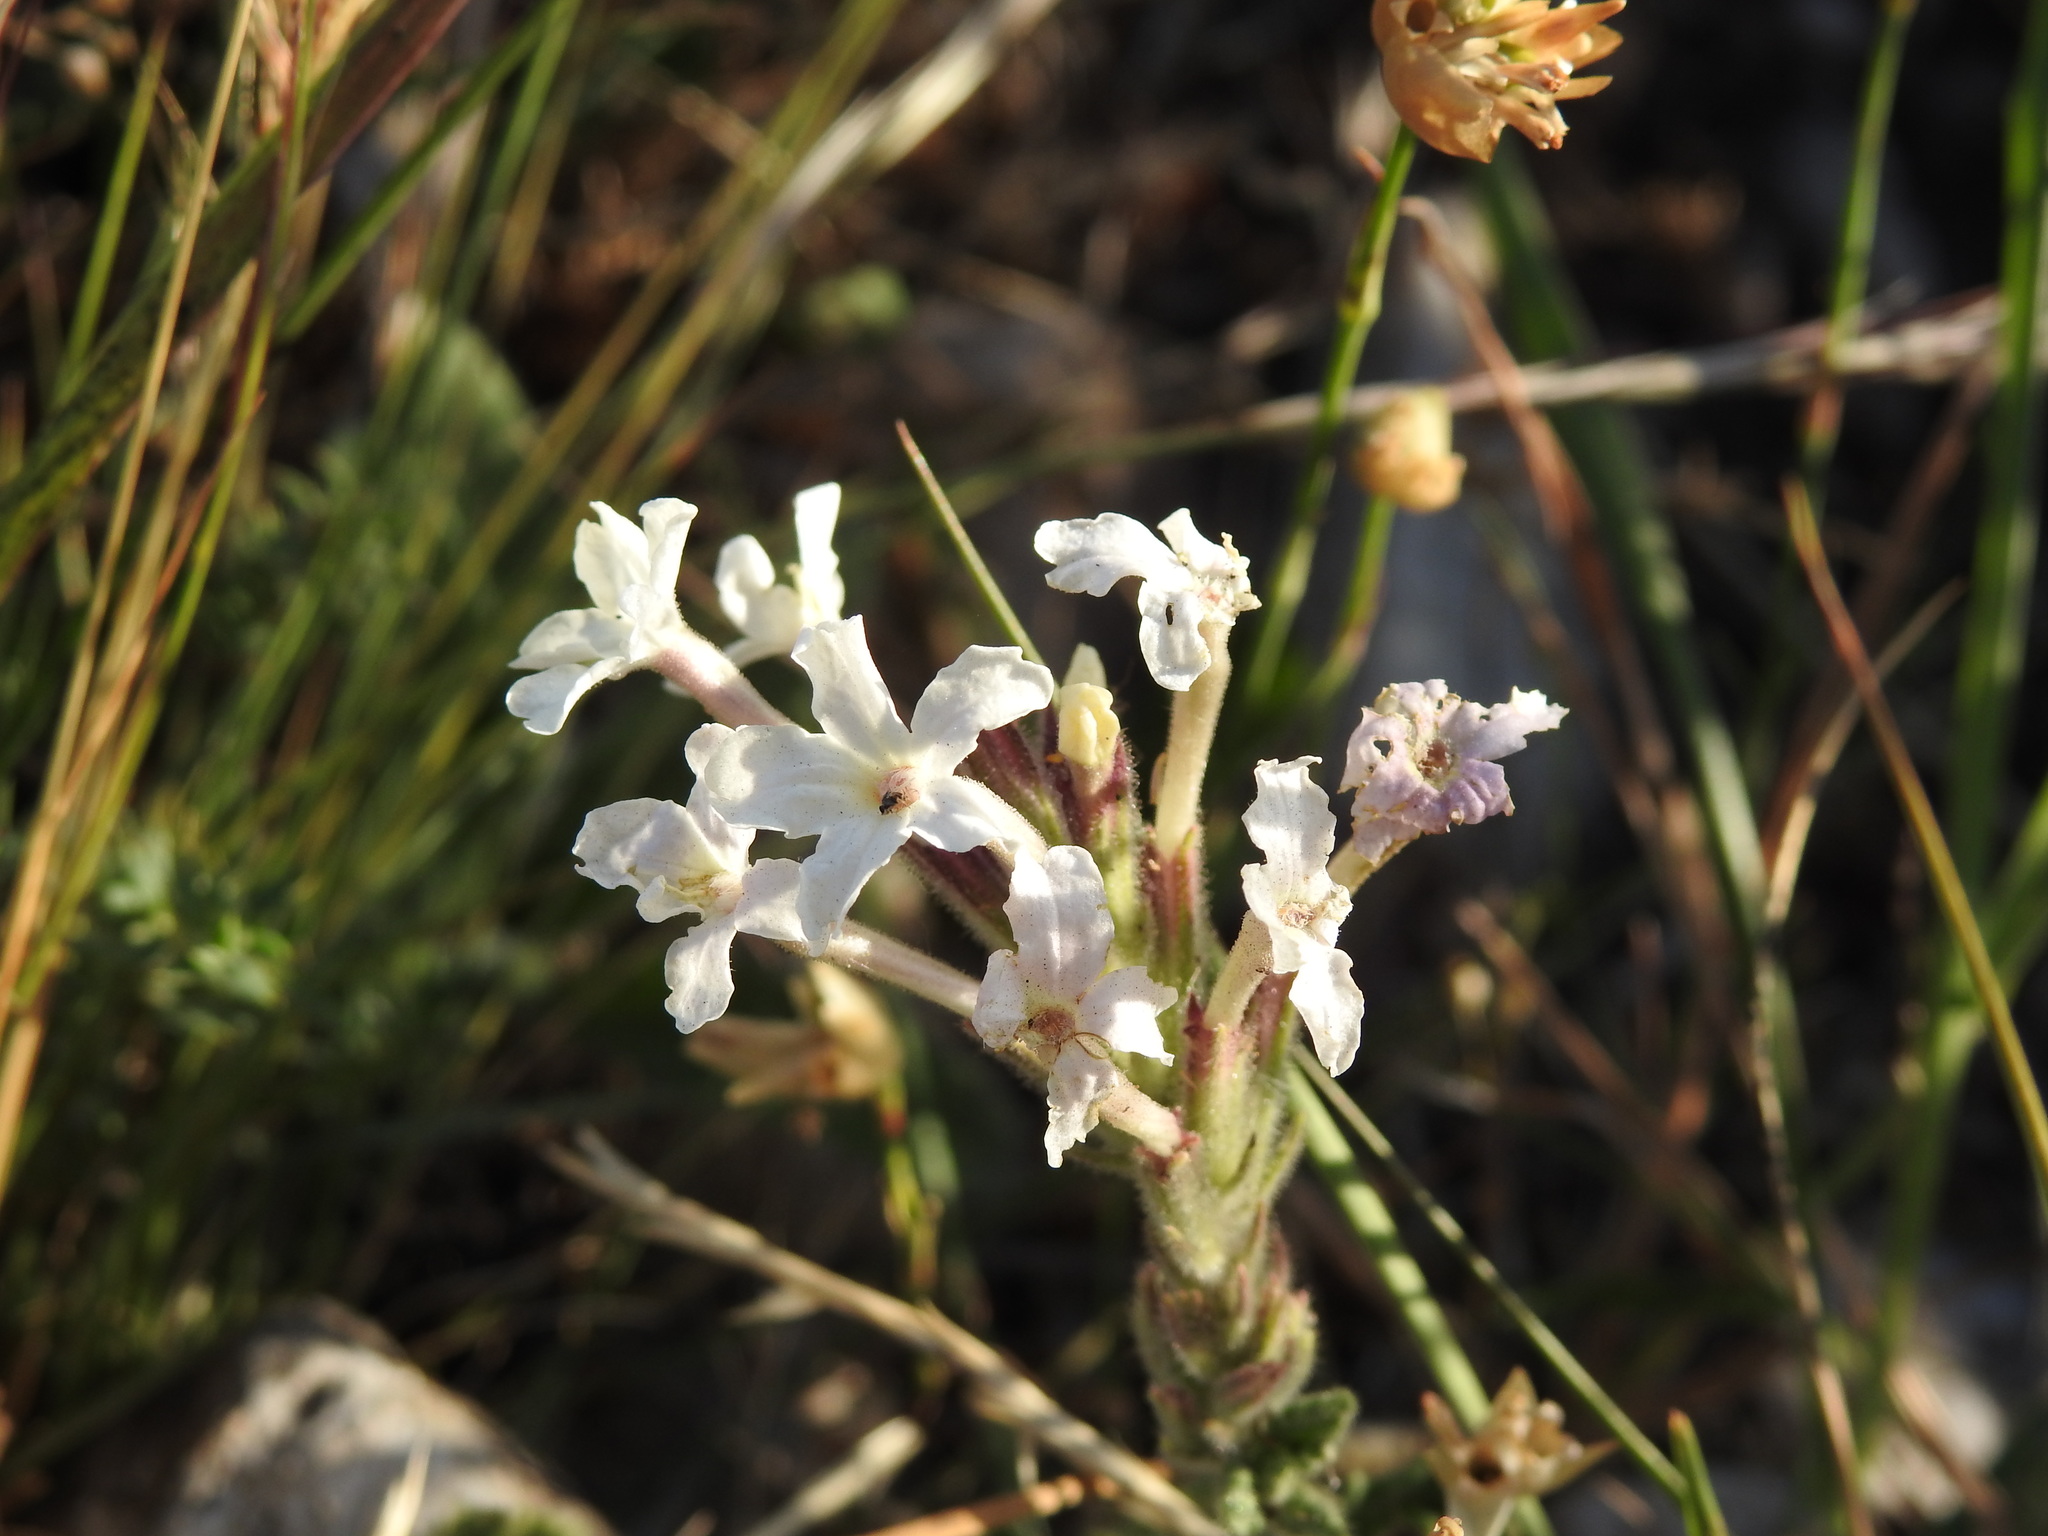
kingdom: Plantae
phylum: Tracheophyta
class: Magnoliopsida
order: Lamiales
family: Verbenaceae
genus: Verbena
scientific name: Verbena platensis
